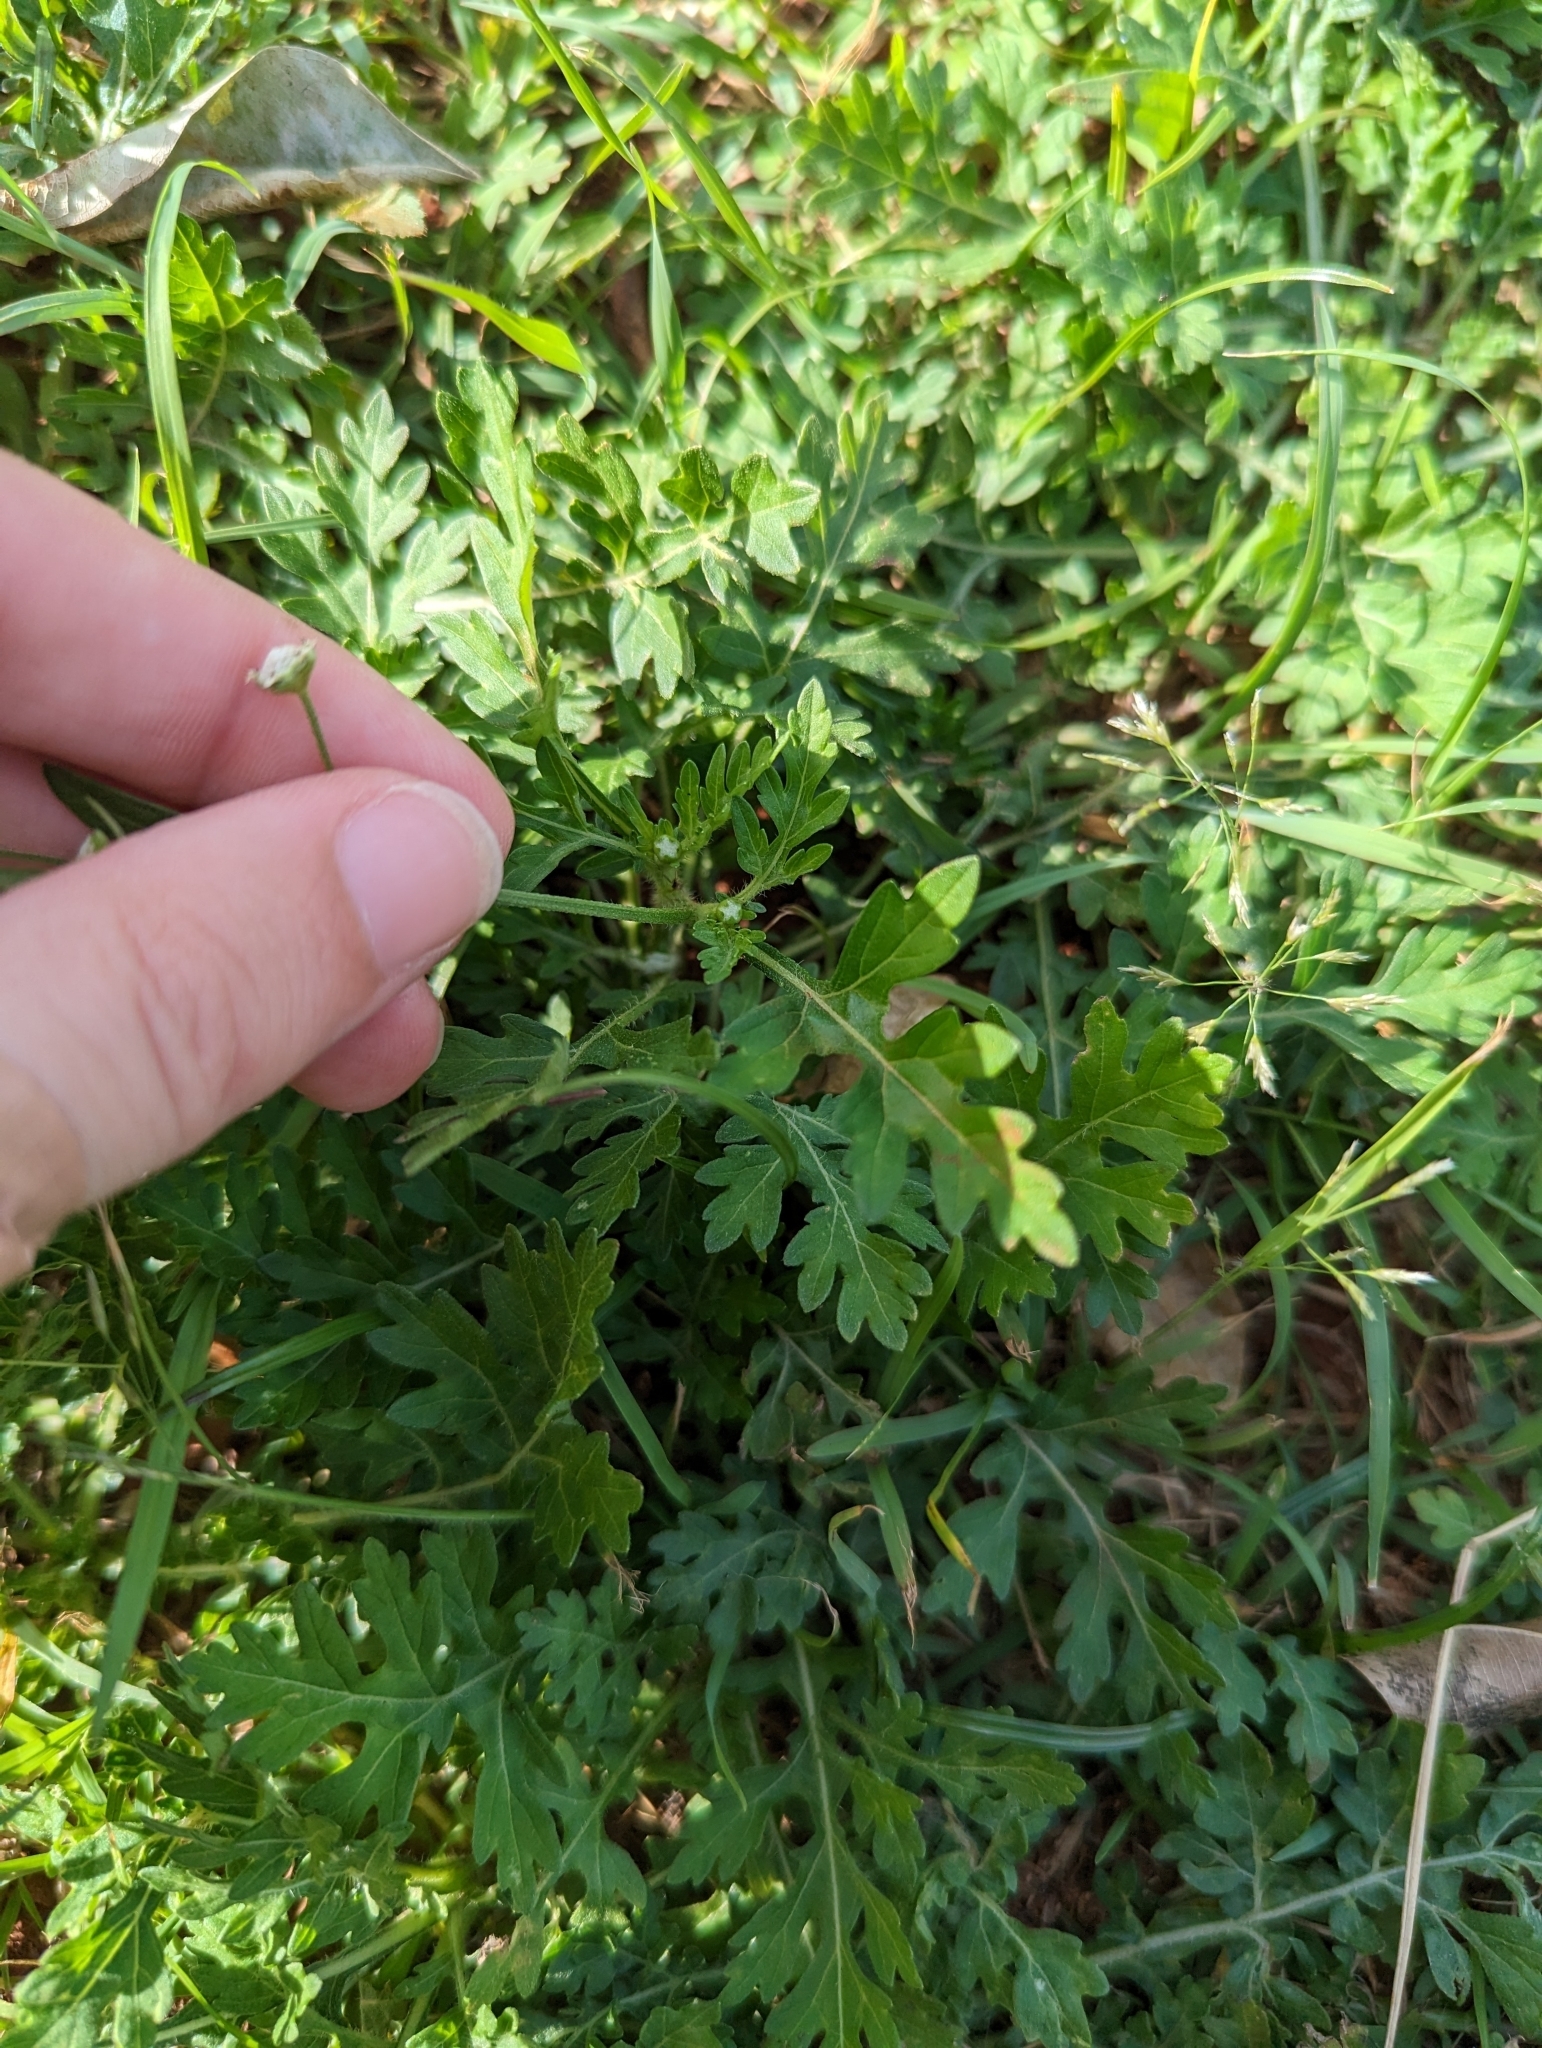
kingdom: Plantae
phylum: Tracheophyta
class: Magnoliopsida
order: Asterales
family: Asteraceae
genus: Parthenium
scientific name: Parthenium hysterophorus
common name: Santa maria feverfew
